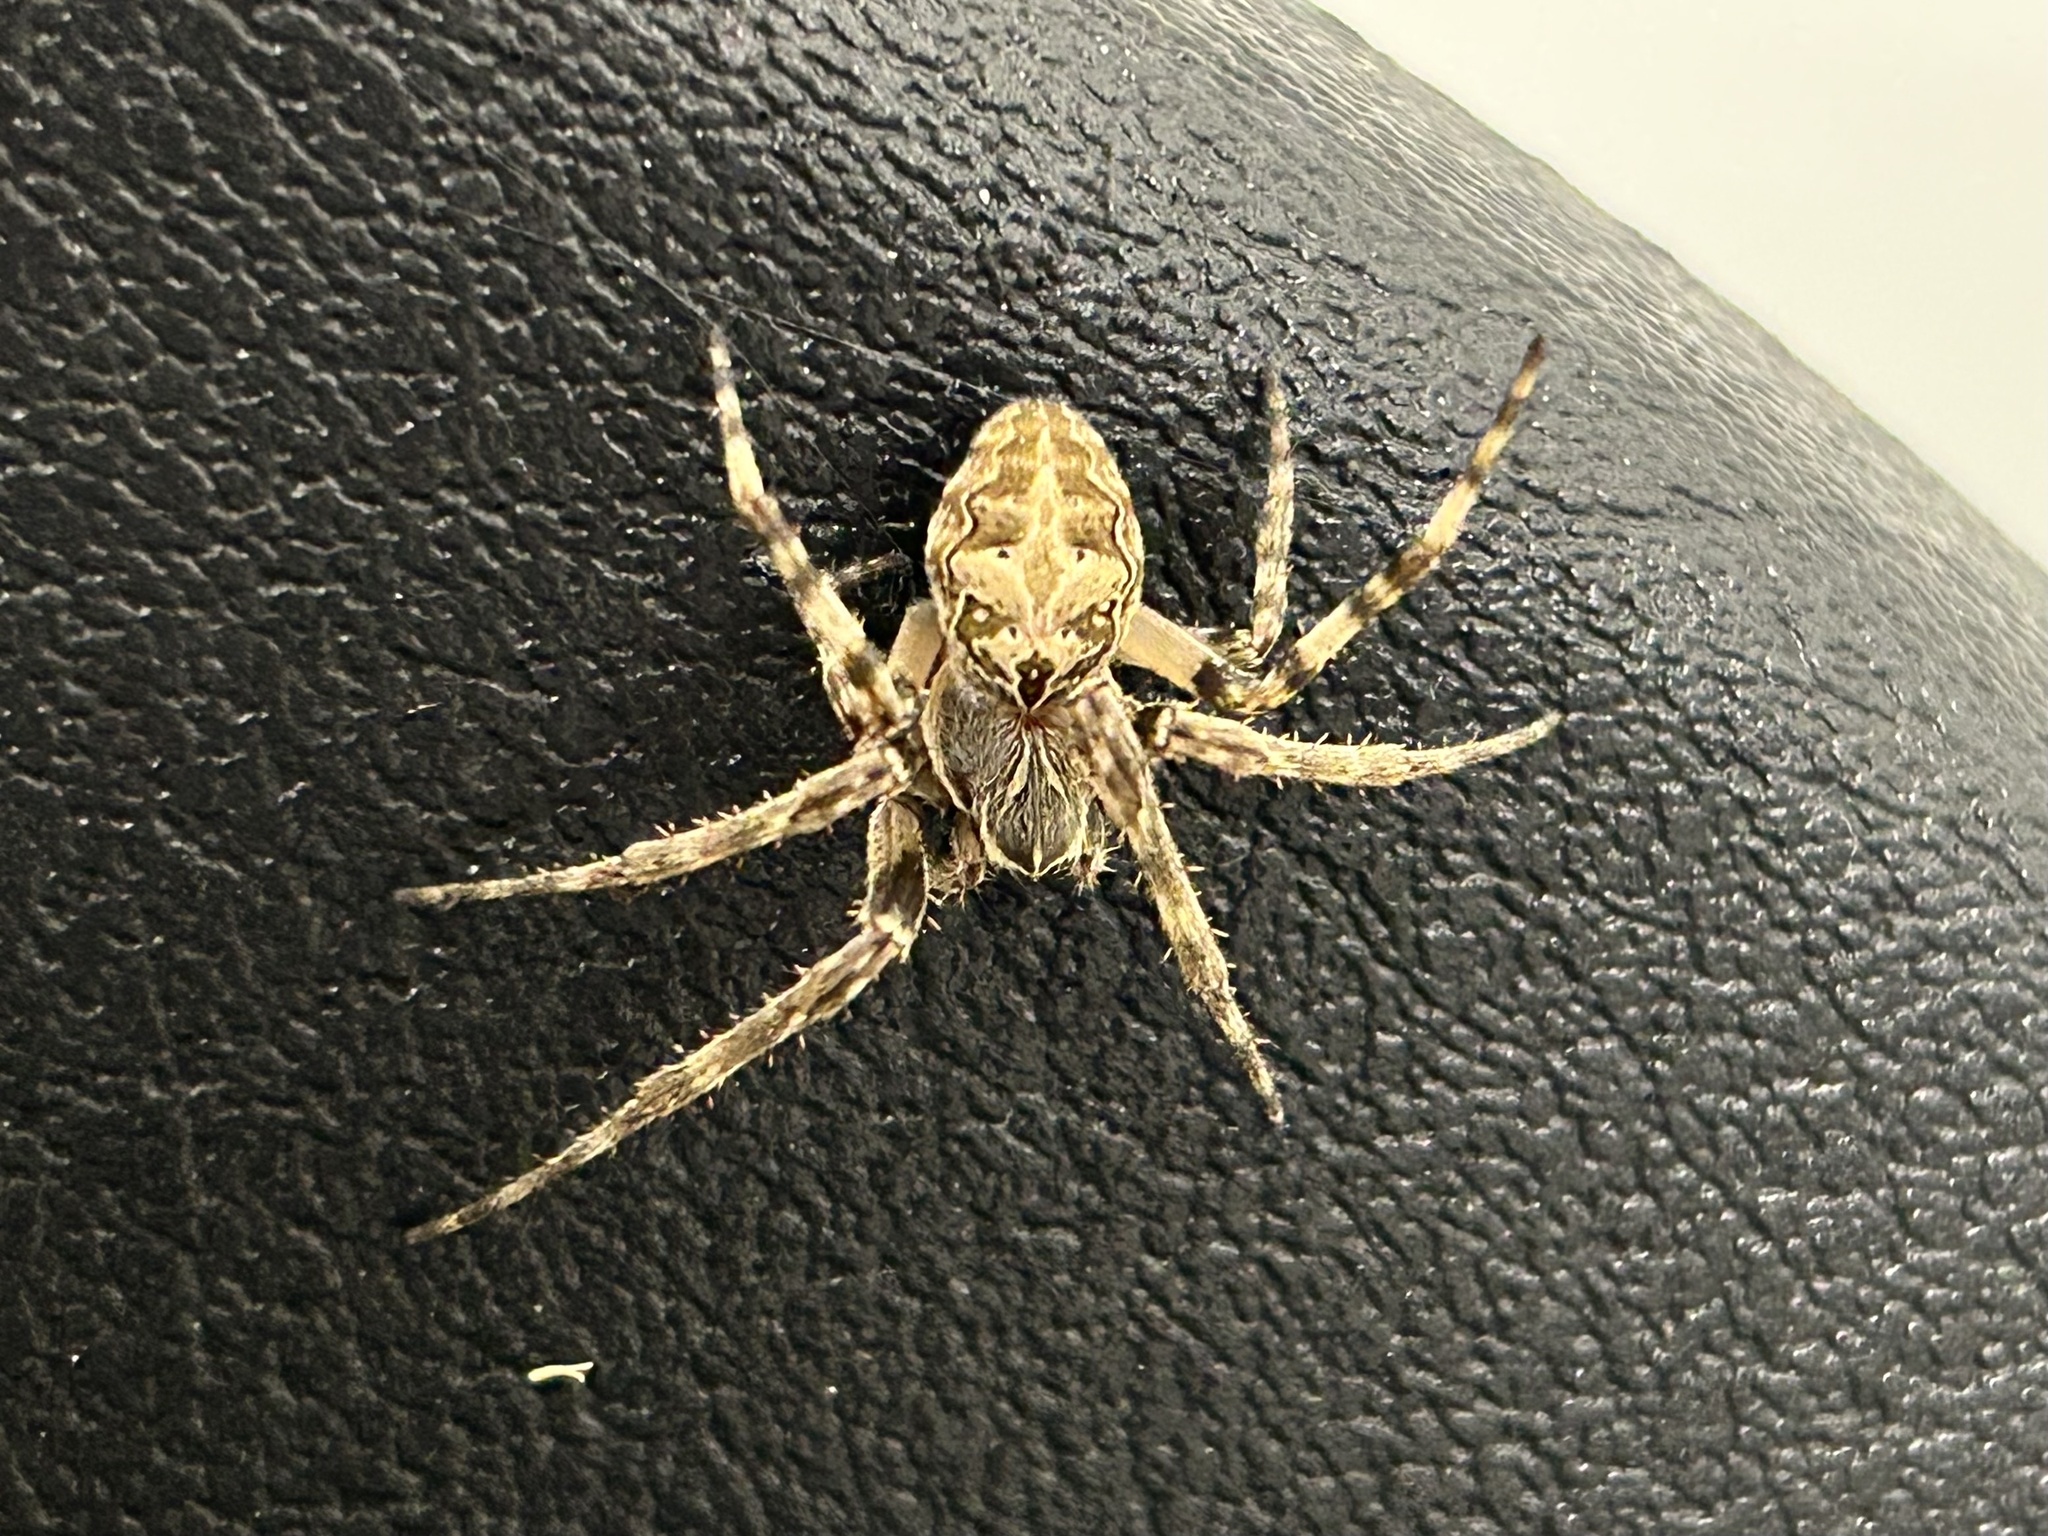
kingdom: Animalia
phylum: Arthropoda
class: Arachnida
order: Araneae
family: Araneidae
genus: Larinioides
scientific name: Larinioides sclopetarius
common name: Bridge orbweaver
